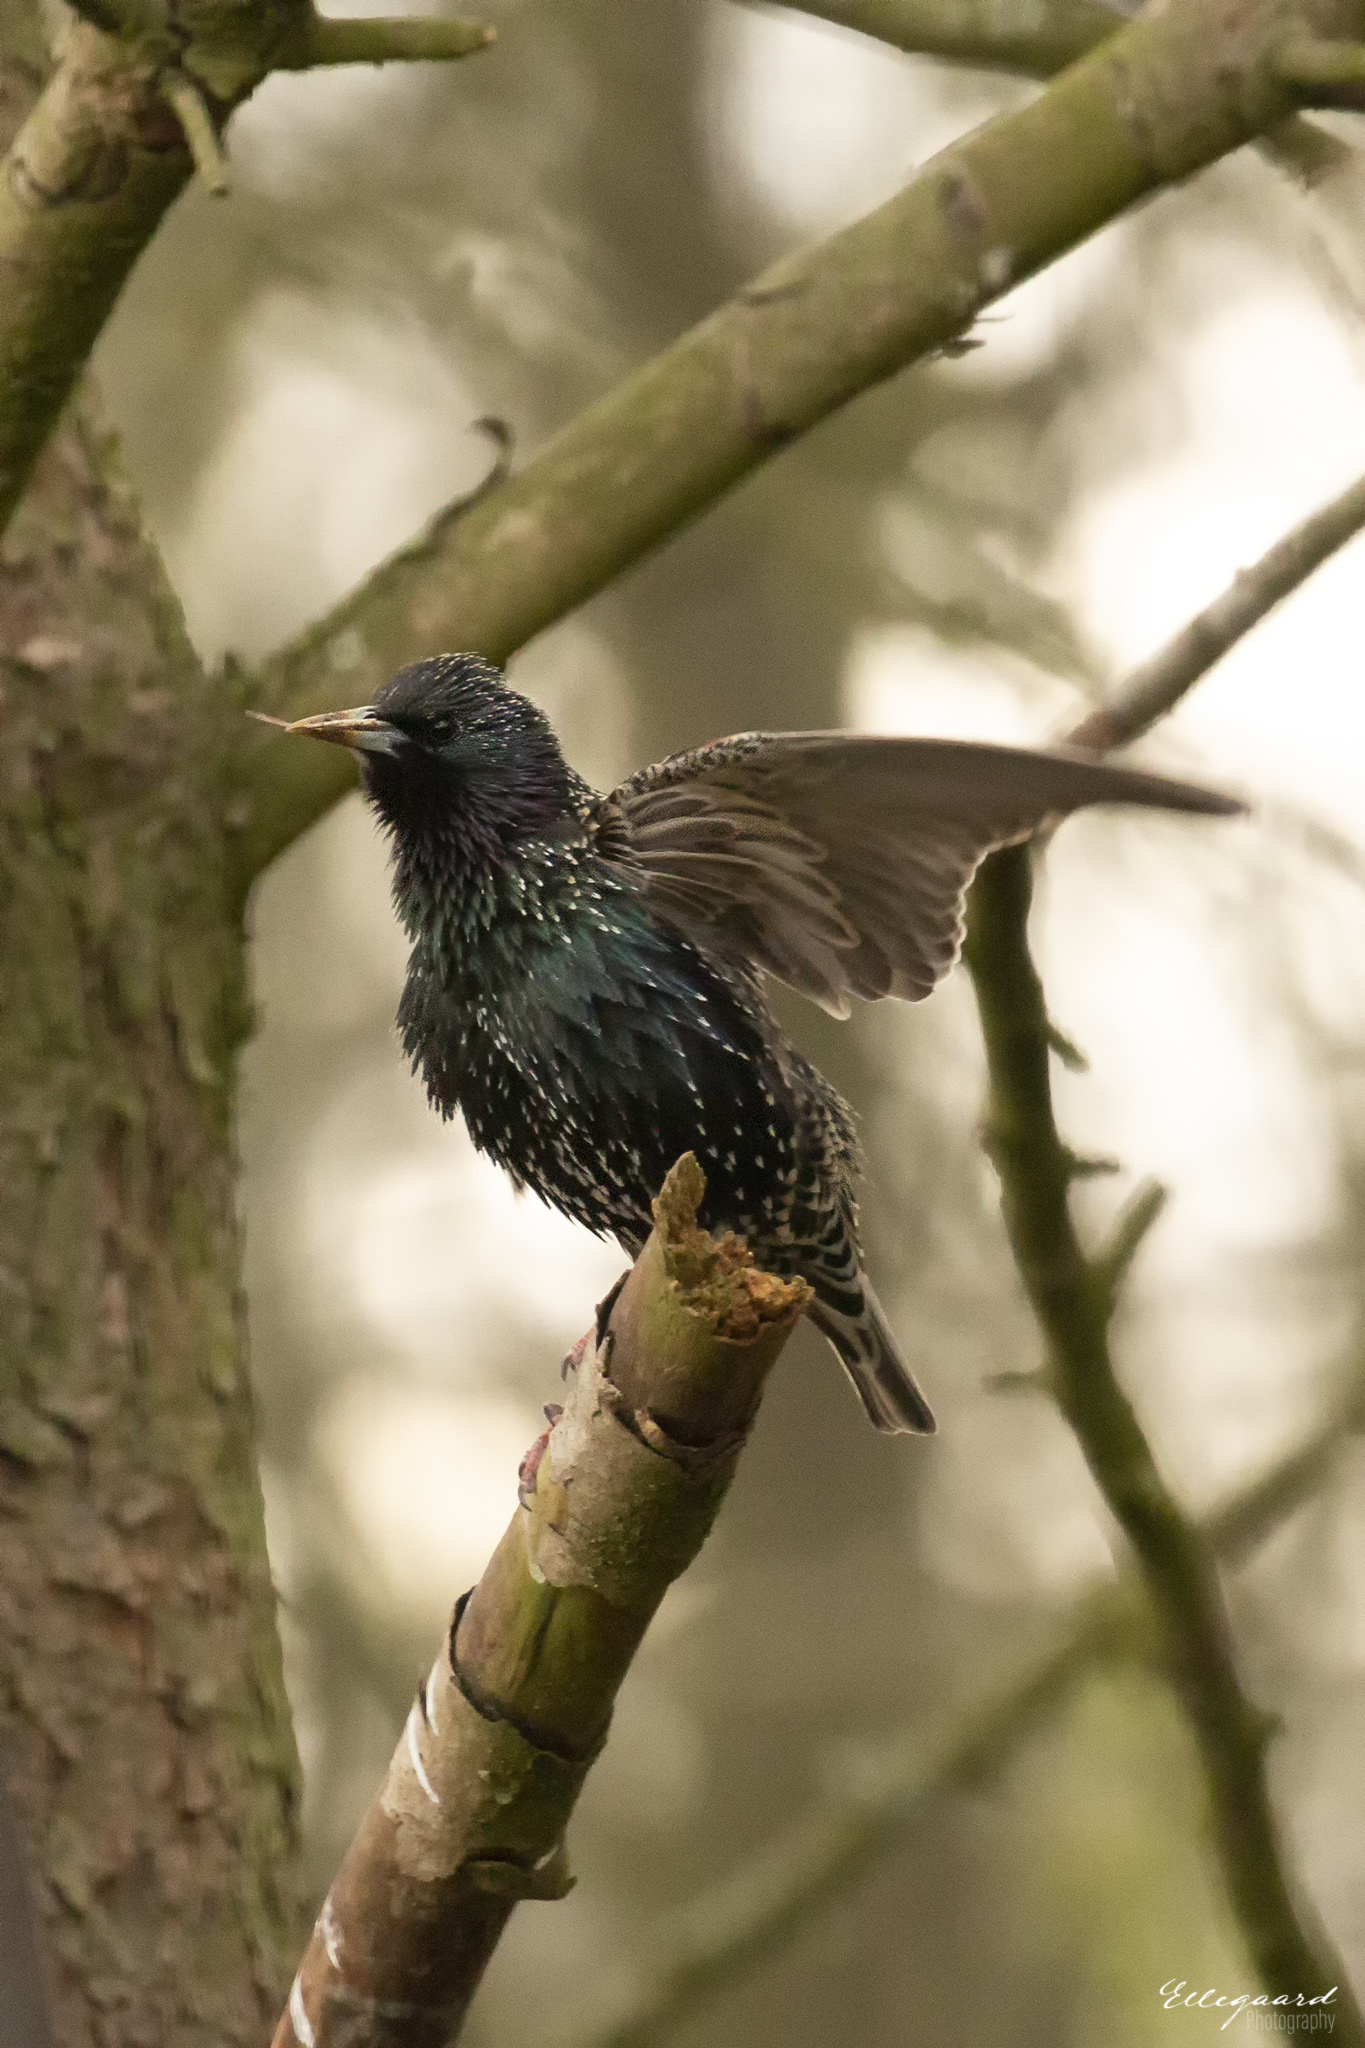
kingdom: Animalia
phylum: Chordata
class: Aves
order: Passeriformes
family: Sturnidae
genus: Sturnus
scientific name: Sturnus vulgaris
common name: Common starling
